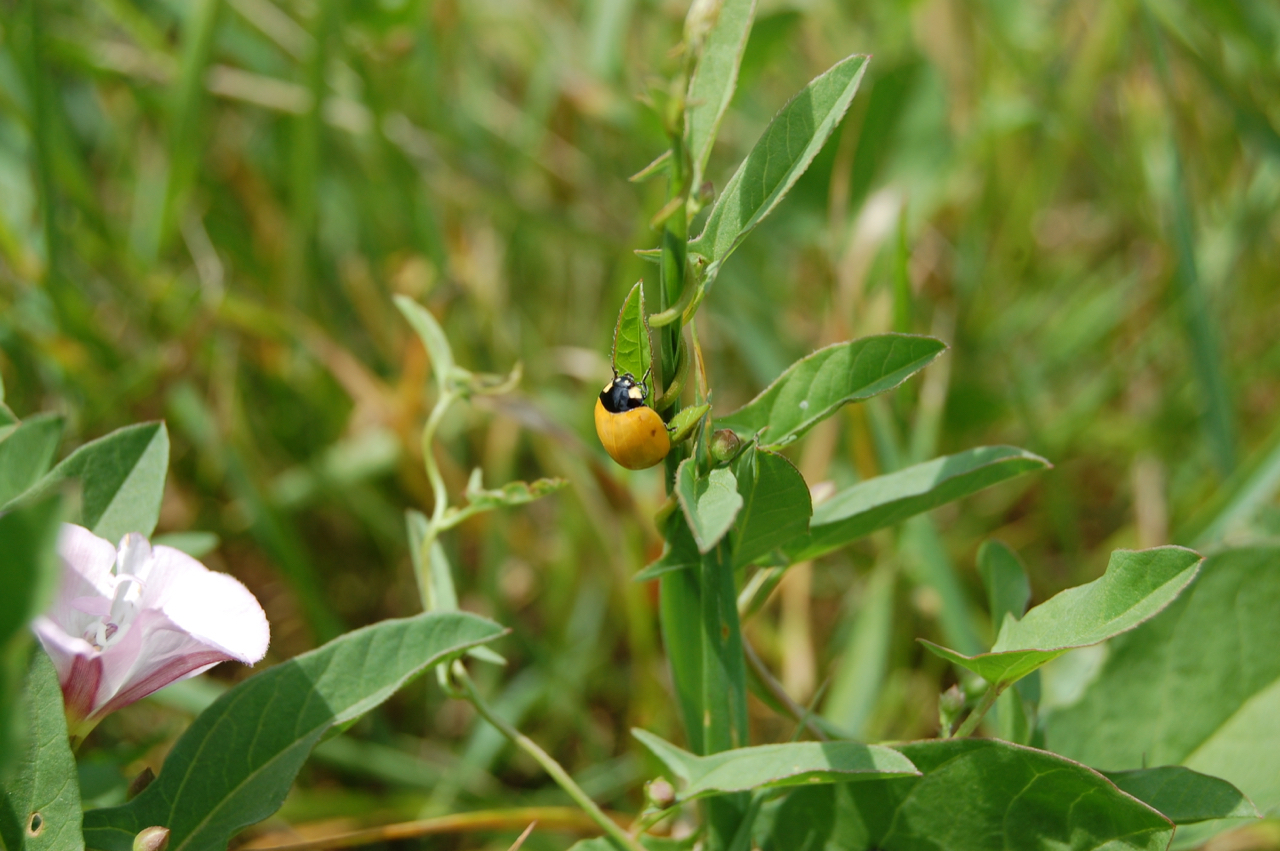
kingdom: Animalia
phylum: Arthropoda
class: Insecta
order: Coleoptera
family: Coccinellidae
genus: Coccinella
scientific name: Coccinella septempunctata
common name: Sevenspotted lady beetle
